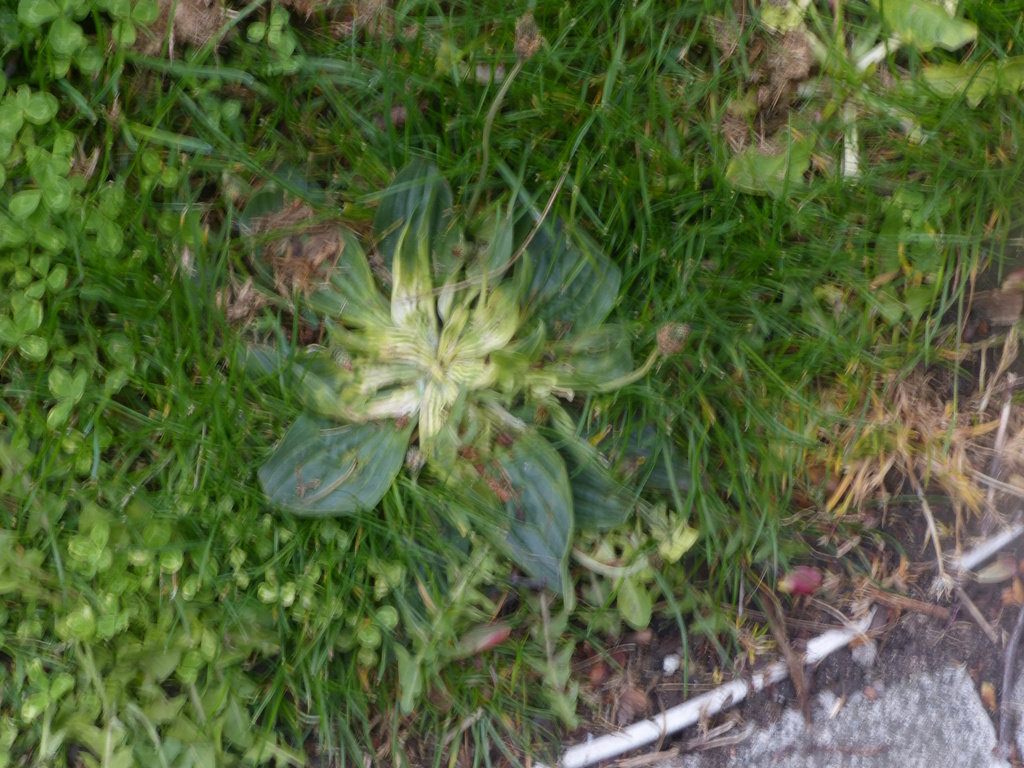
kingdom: Plantae
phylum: Tracheophyta
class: Magnoliopsida
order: Lamiales
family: Plantaginaceae
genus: Plantago
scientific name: Plantago major
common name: Common plantain
